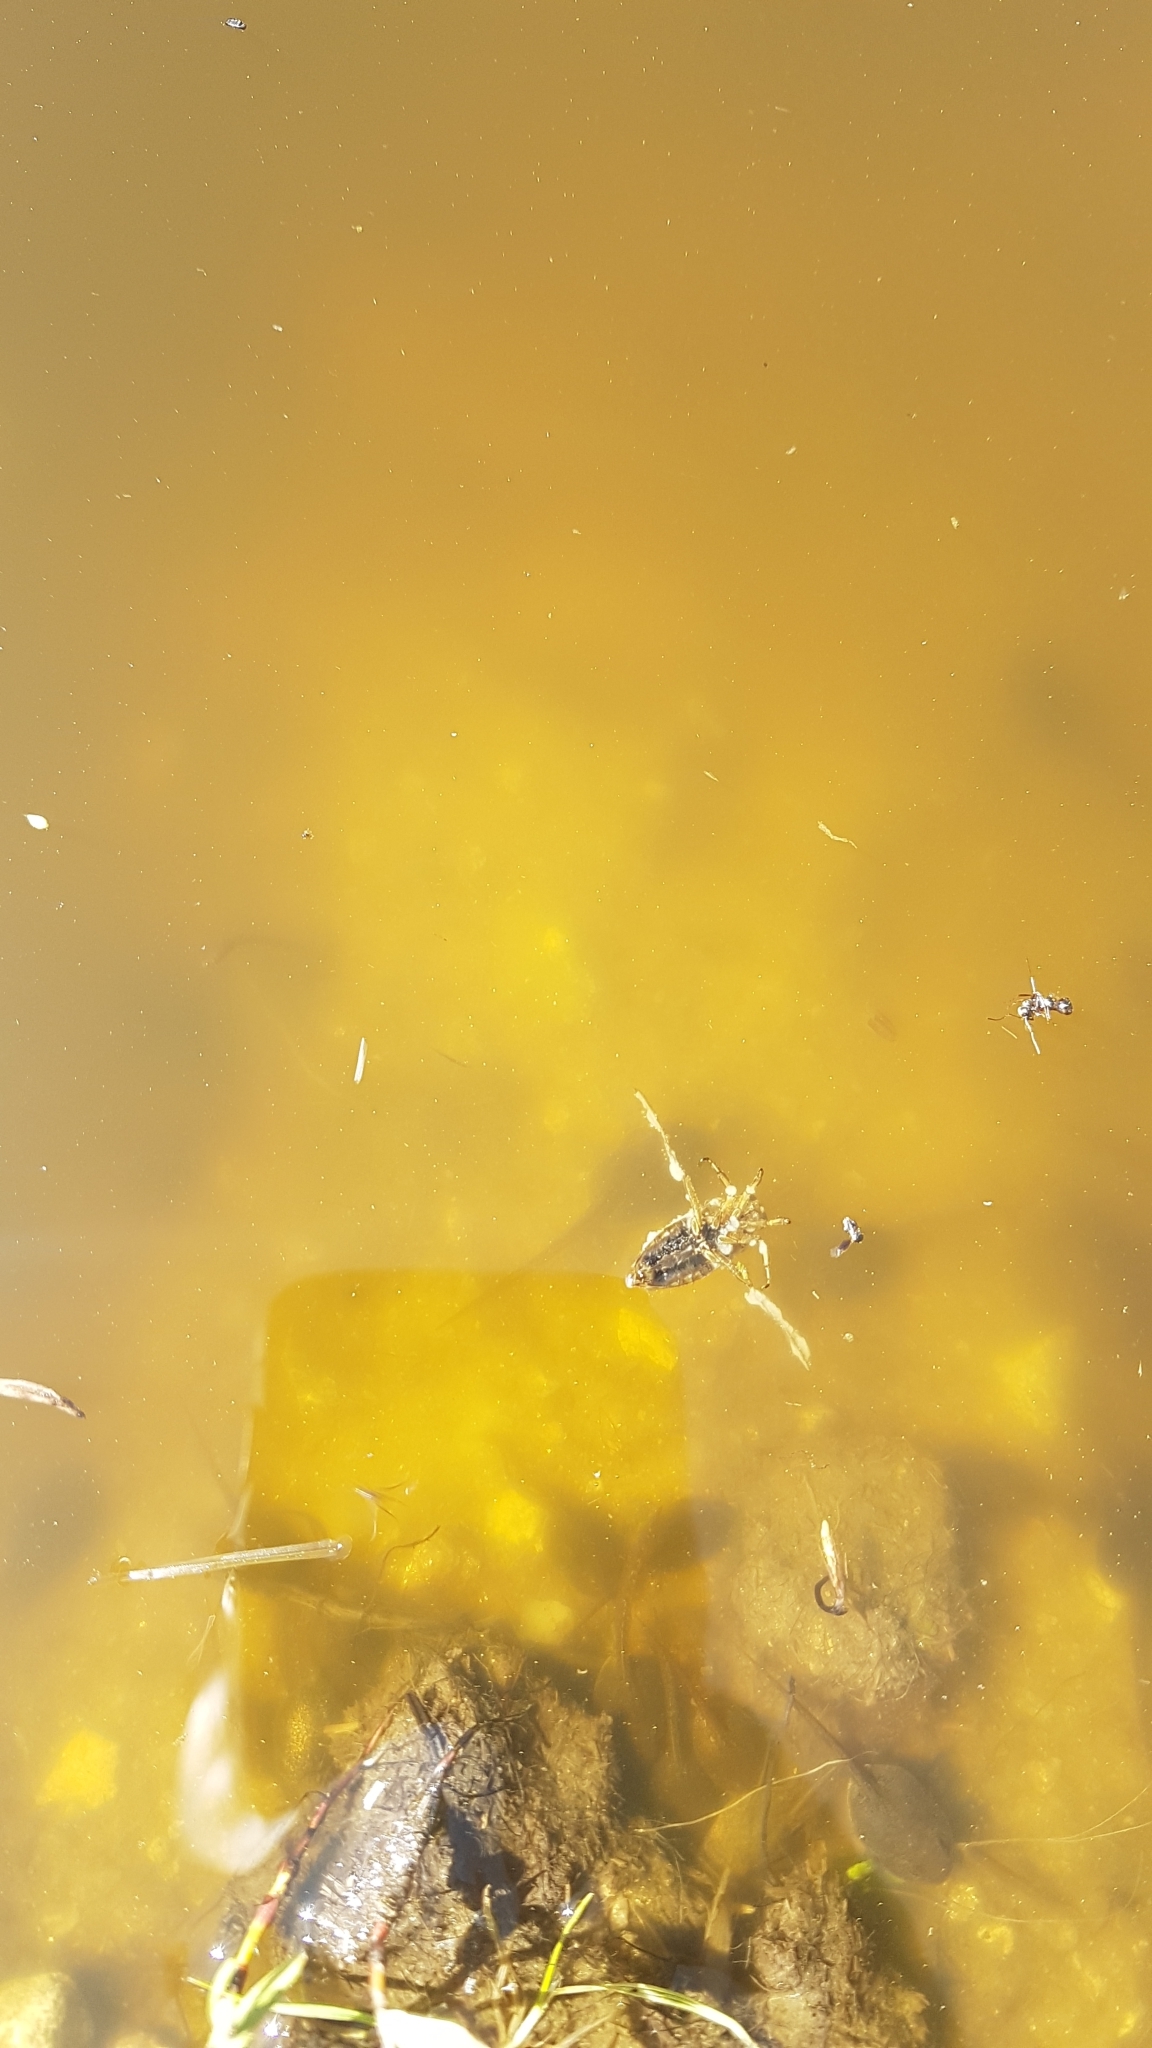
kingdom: Animalia
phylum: Chordata
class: Amphibia
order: Anura
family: Ranidae
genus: Rana
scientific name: Rana temporaria
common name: Common frog
